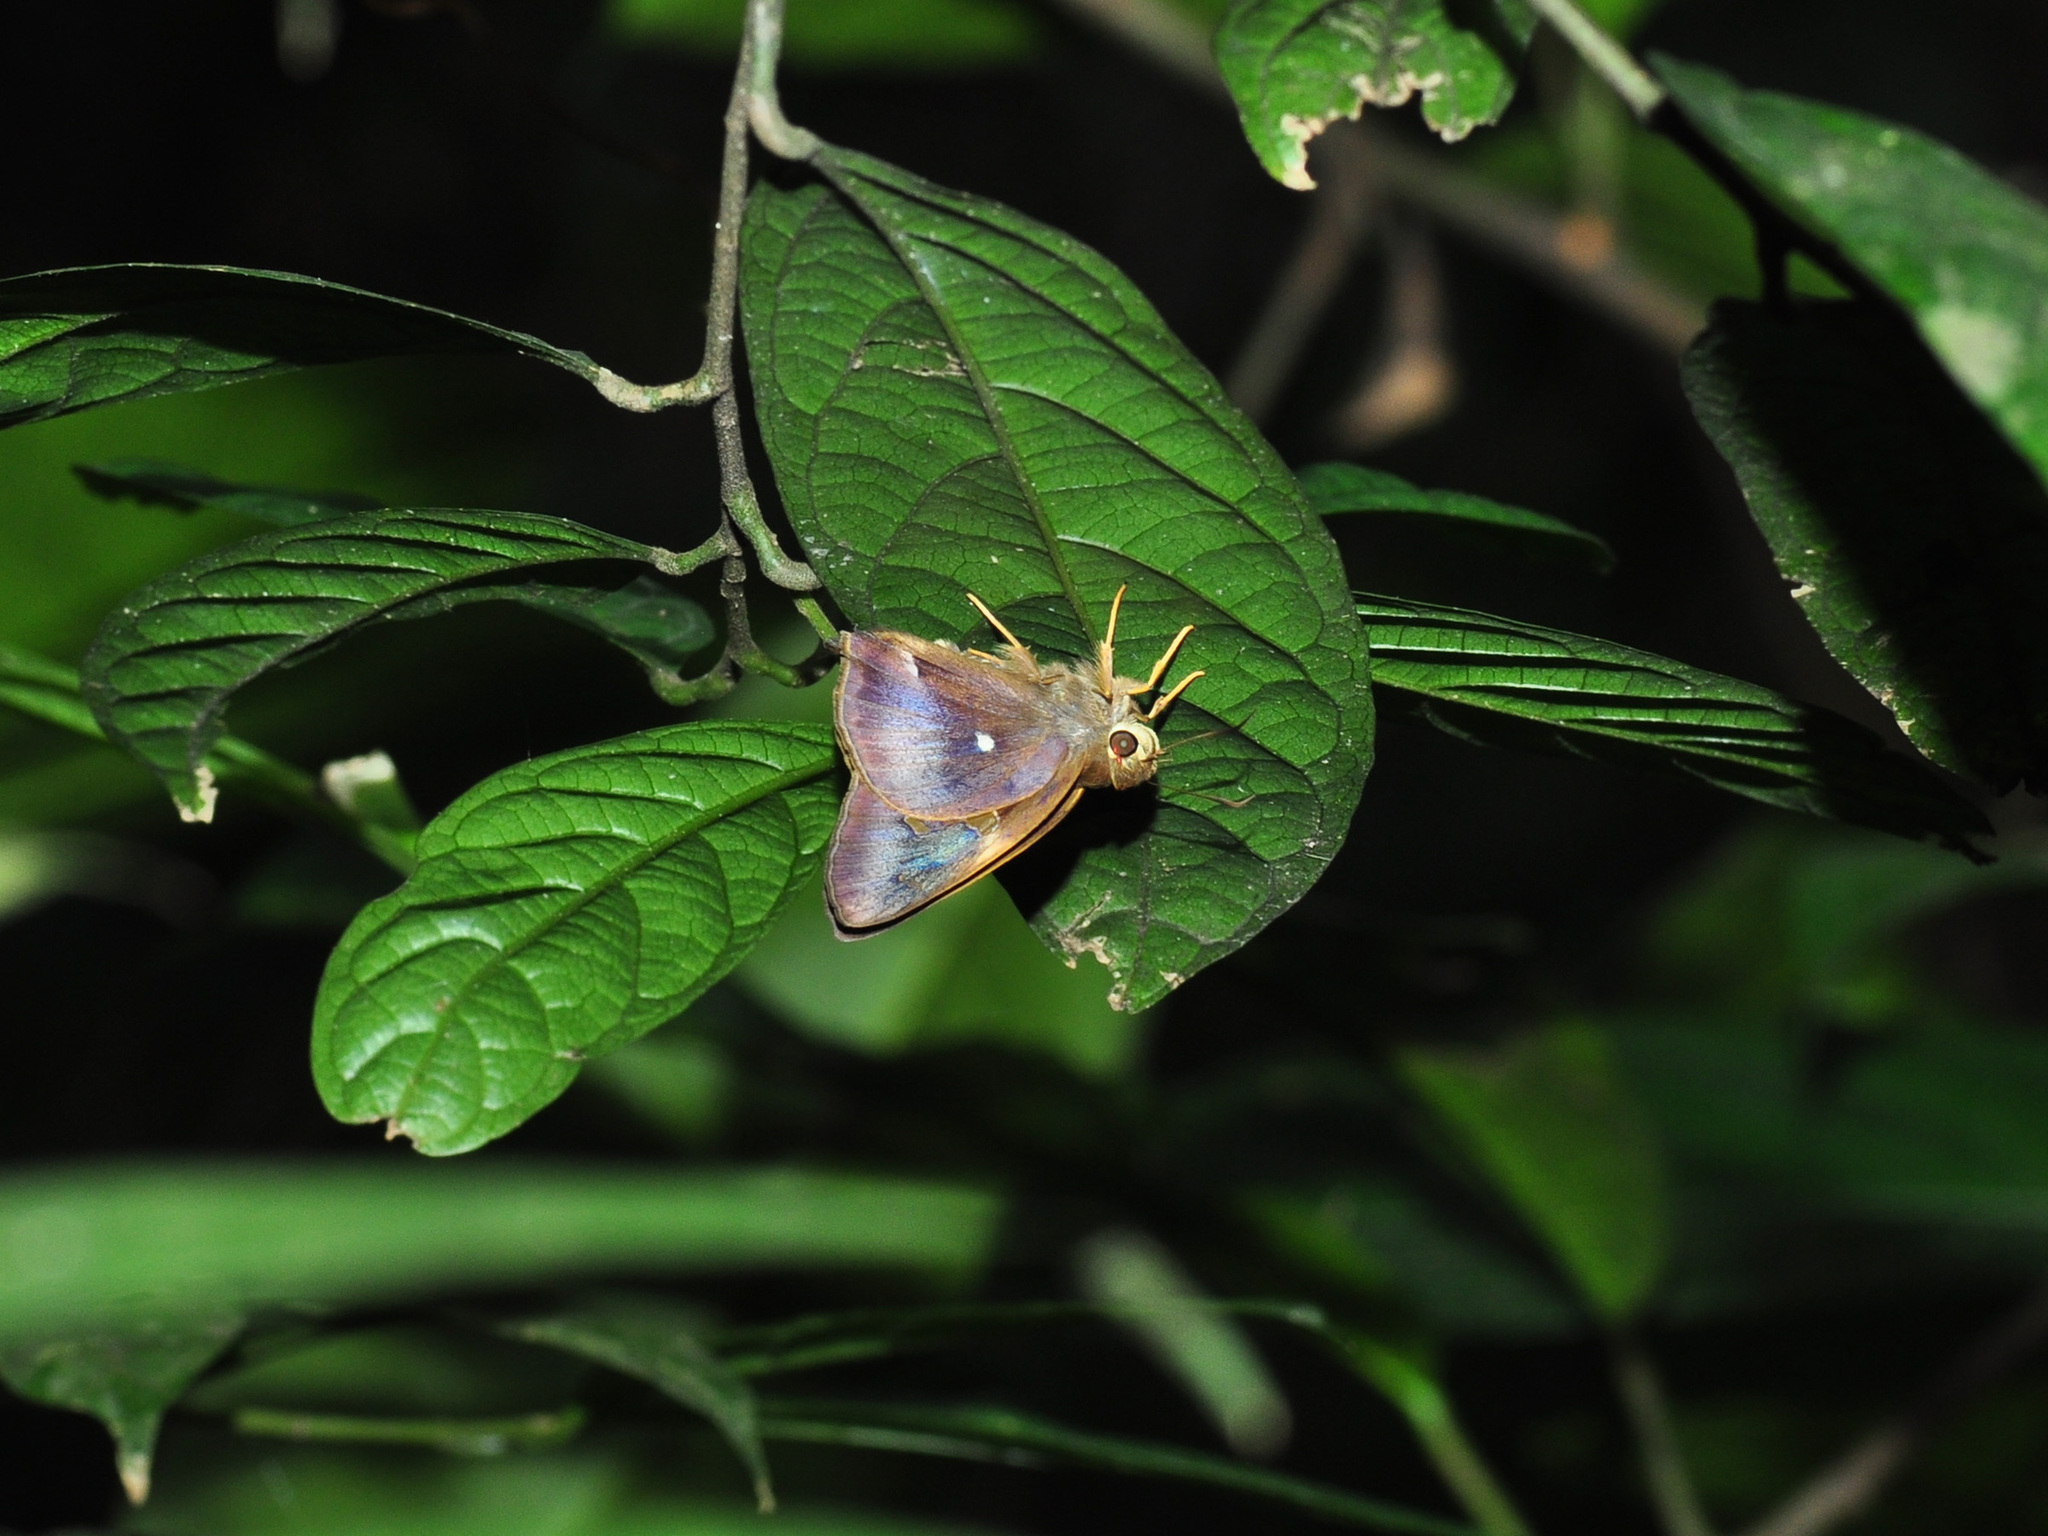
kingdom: Animalia
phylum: Arthropoda
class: Insecta
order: Lepidoptera
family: Hesperiidae
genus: Hasora
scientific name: Hasora badra
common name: Common awl
